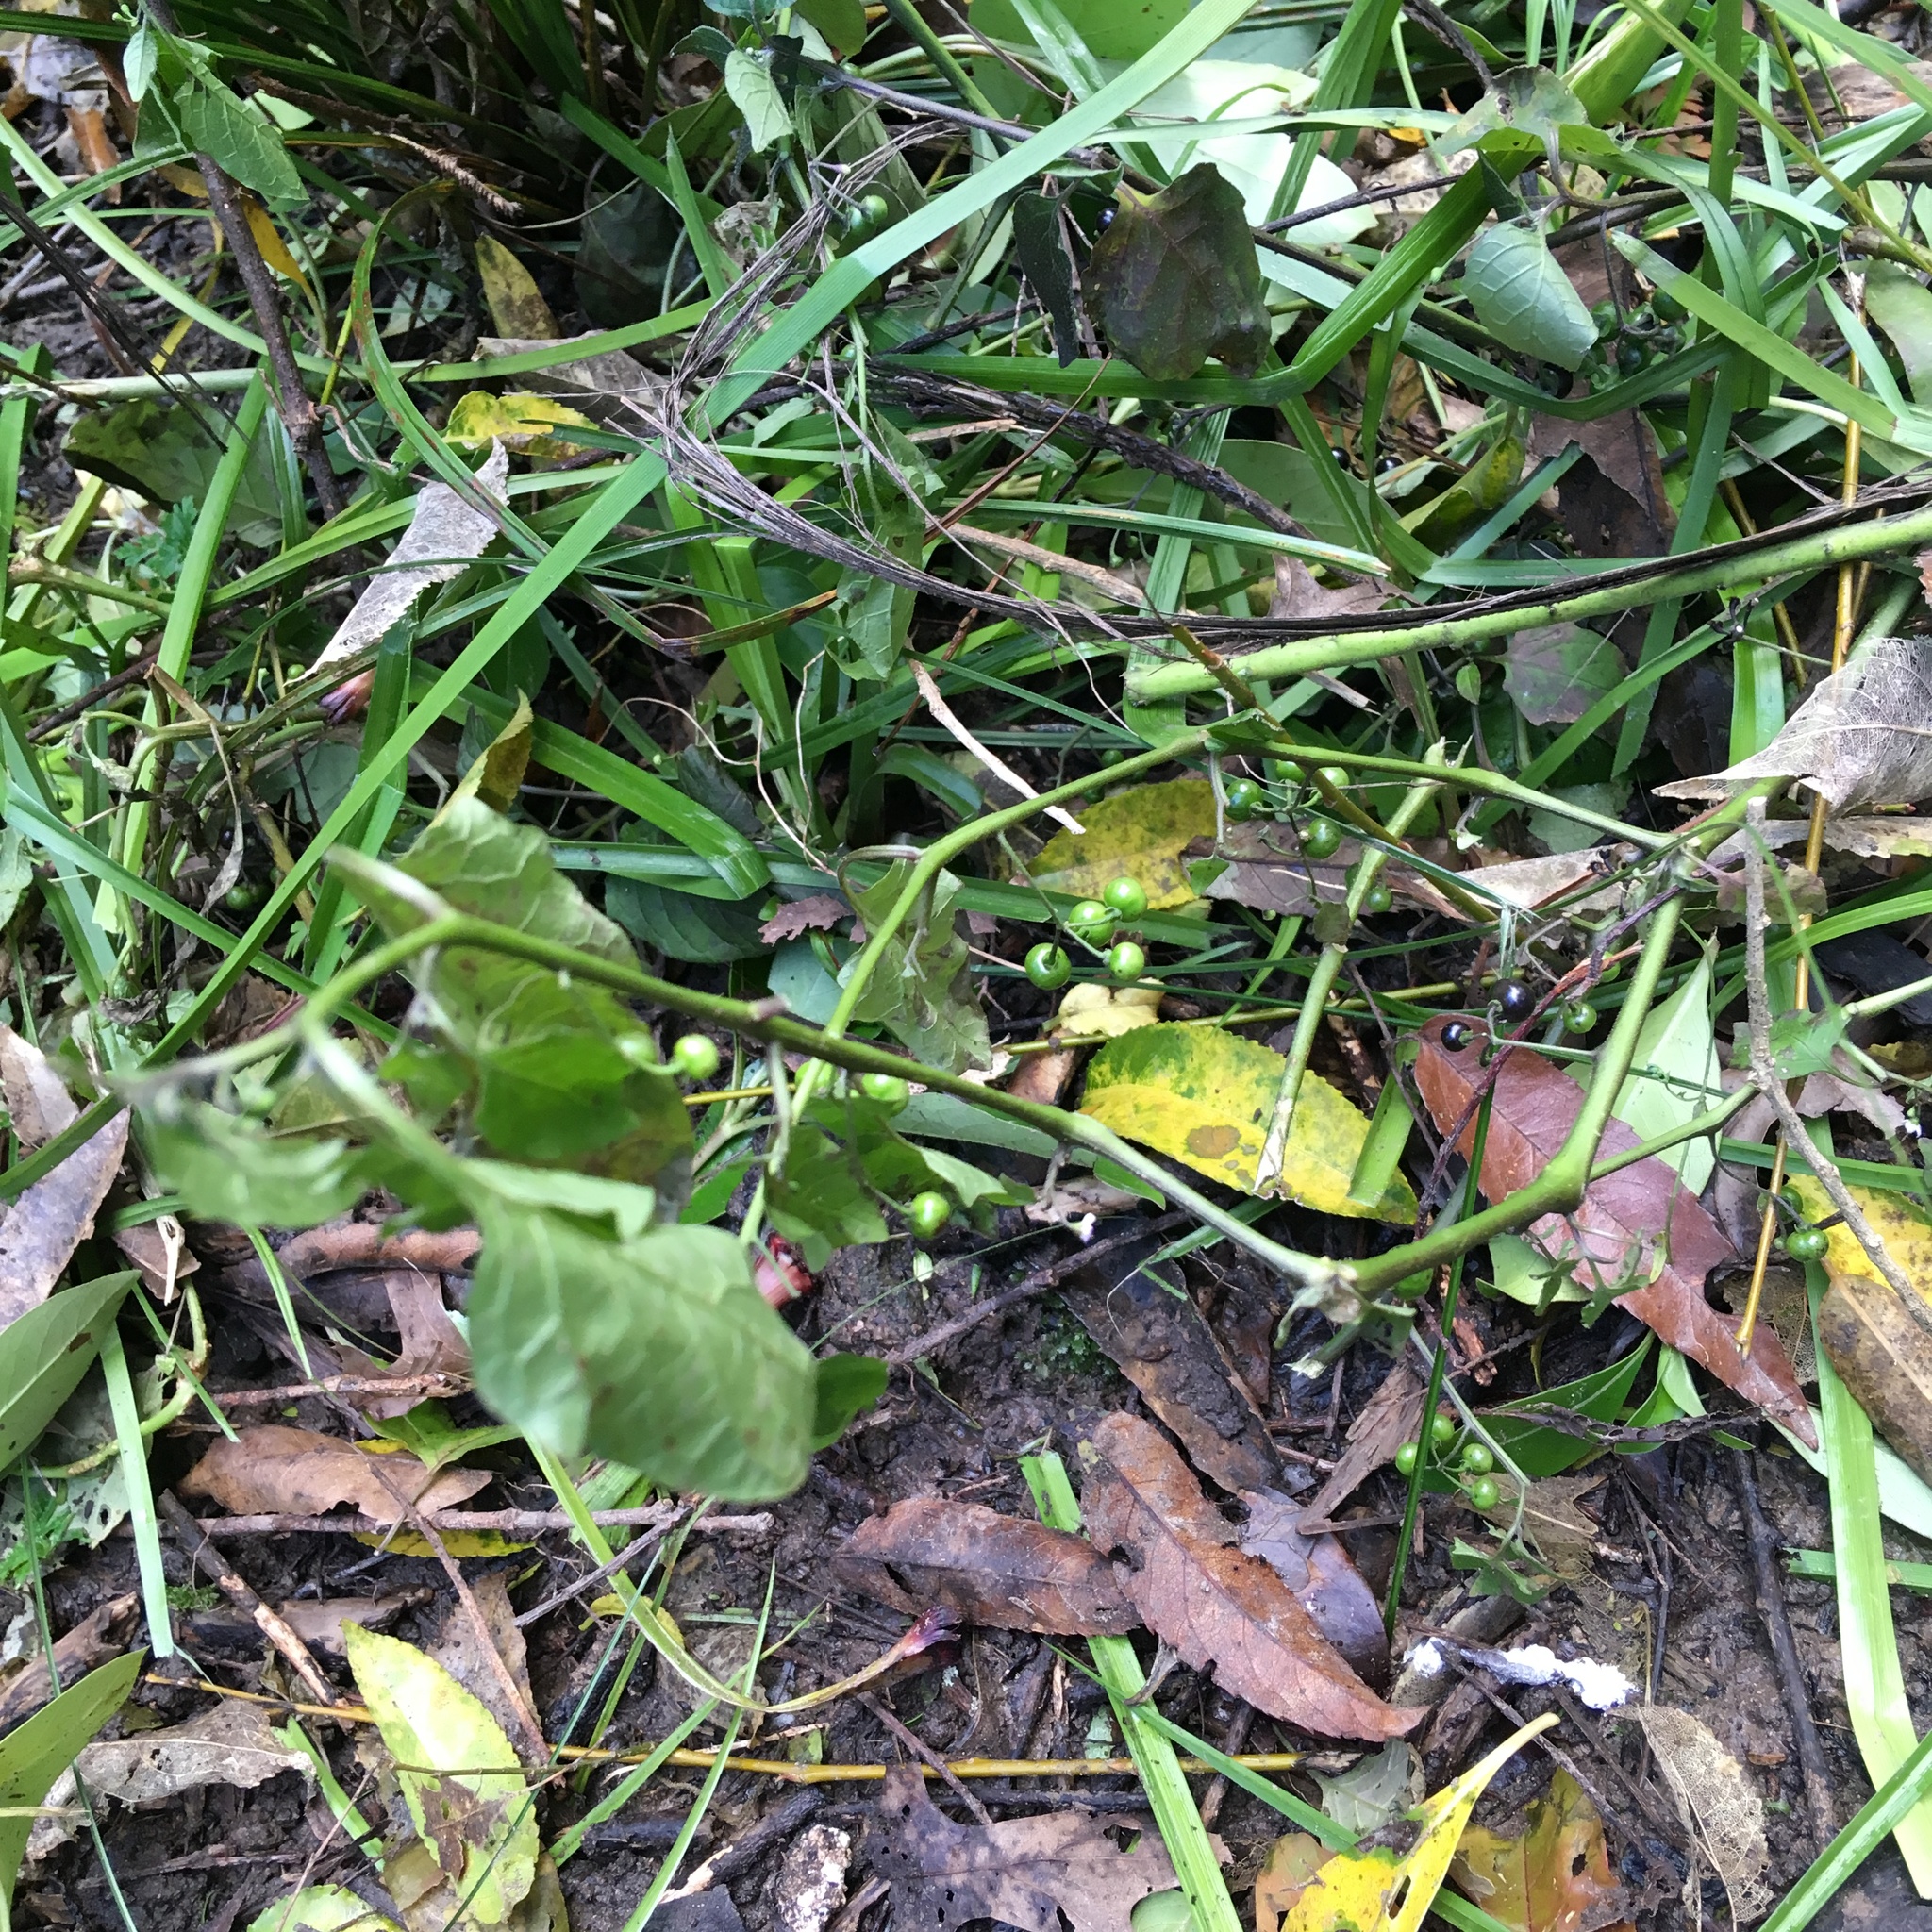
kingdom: Plantae
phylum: Tracheophyta
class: Magnoliopsida
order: Solanales
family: Solanaceae
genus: Solanum
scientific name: Solanum americanum
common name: American black nightshade
